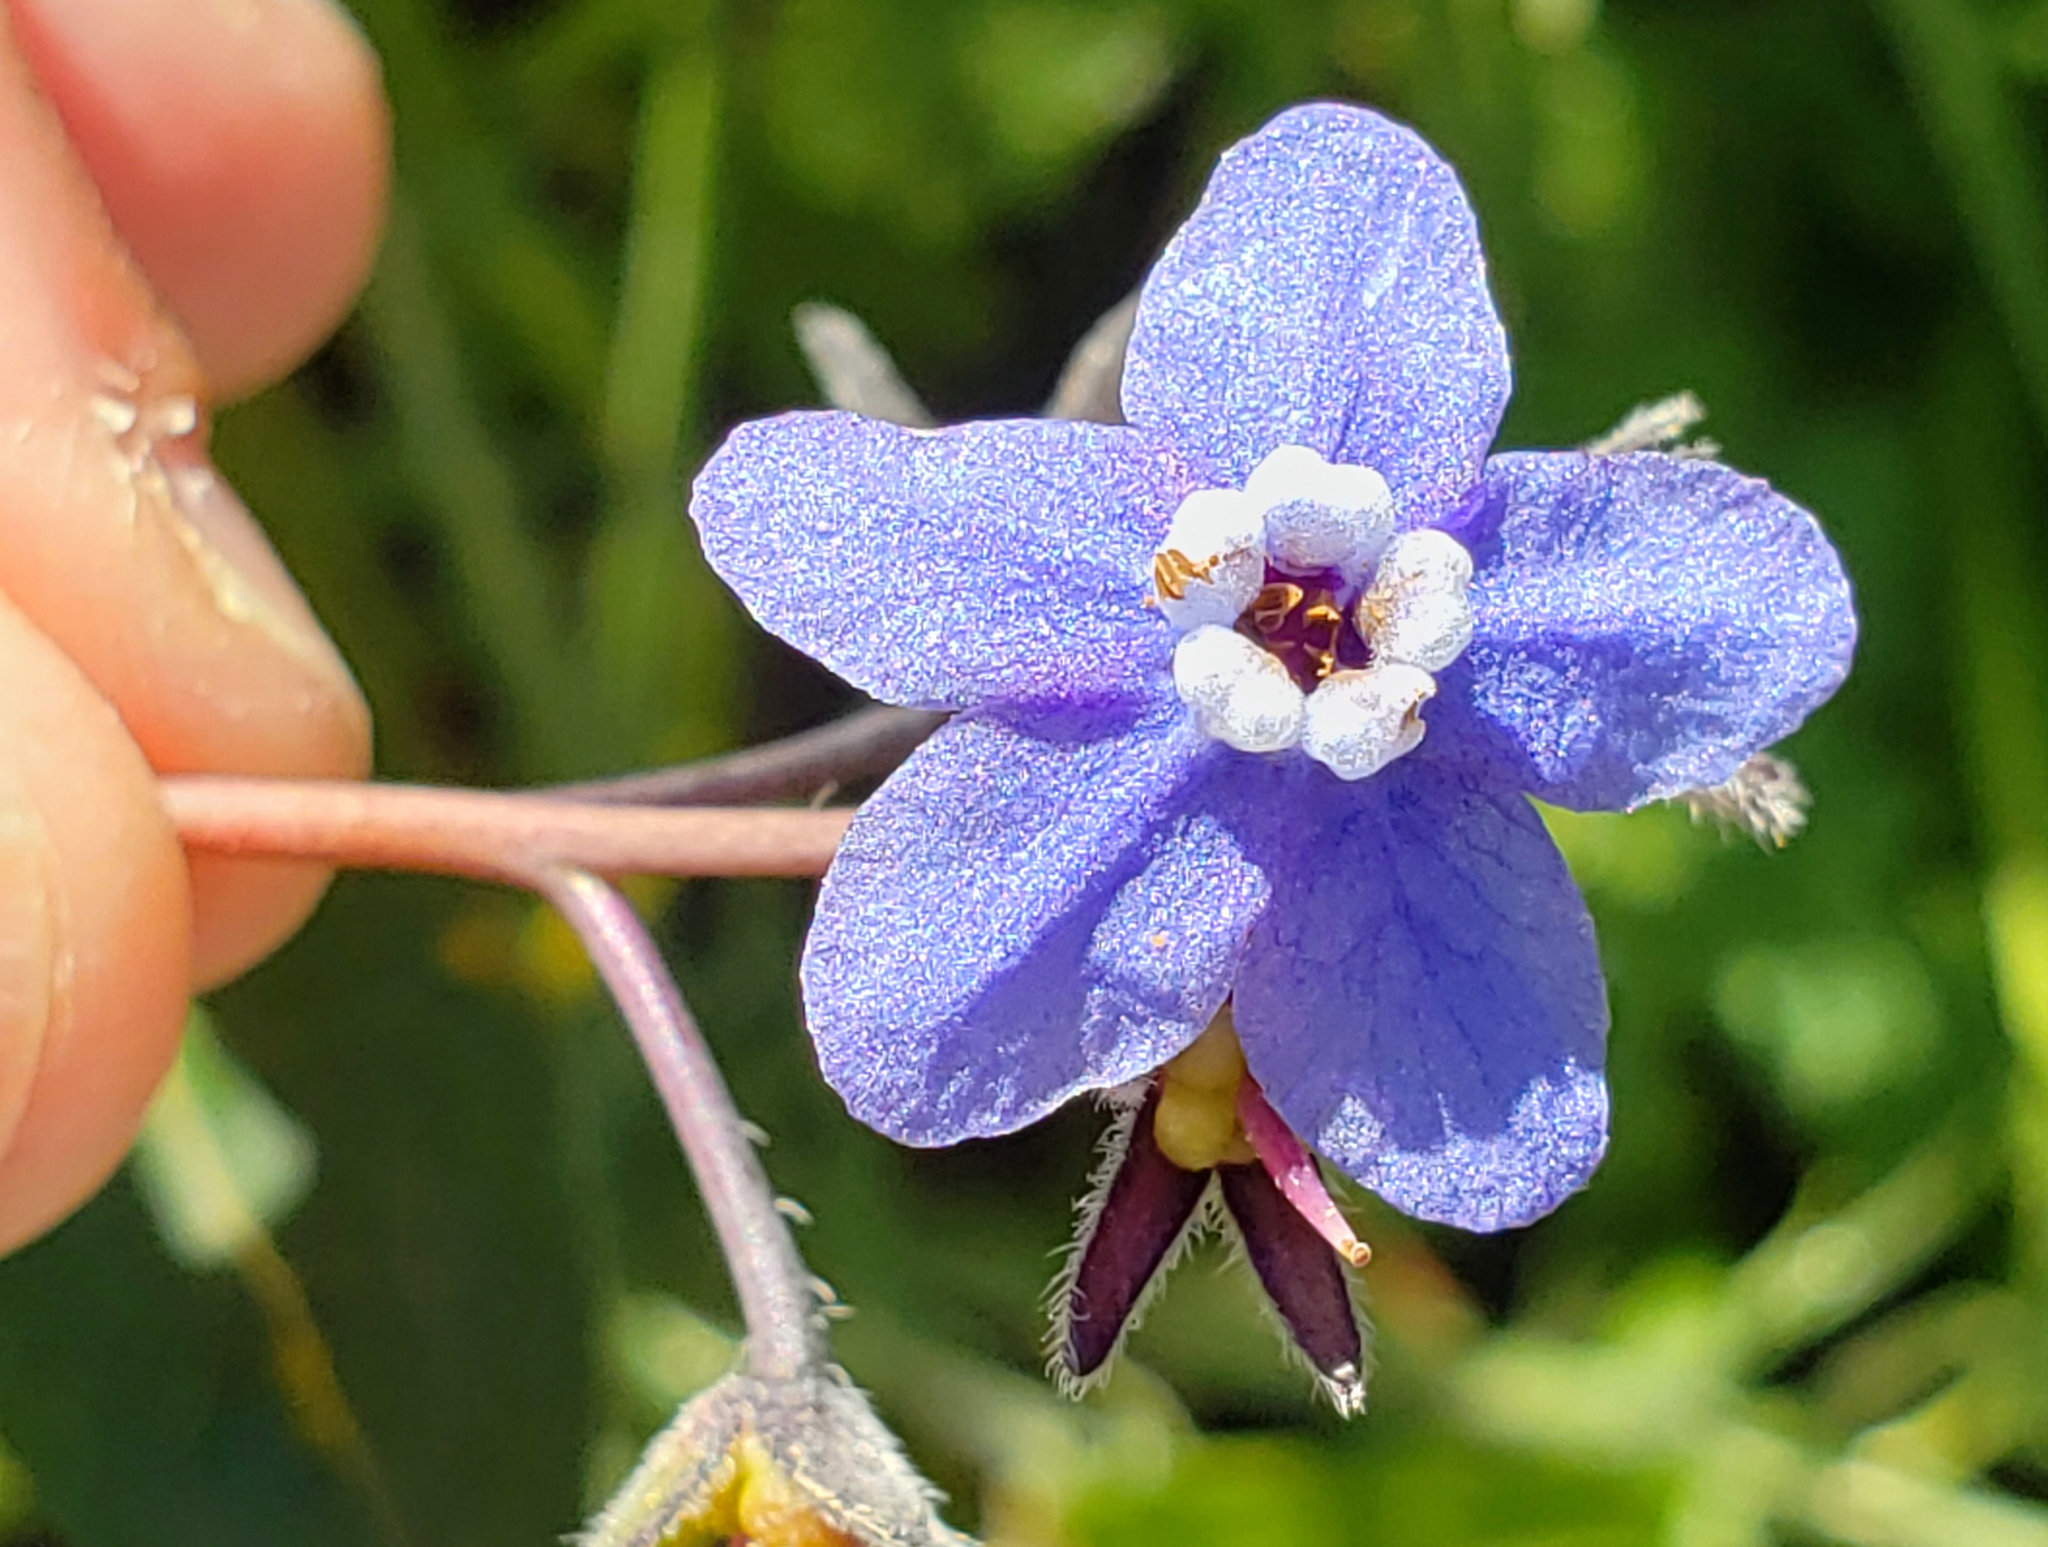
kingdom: Plantae
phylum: Tracheophyta
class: Magnoliopsida
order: Boraginales
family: Boraginaceae
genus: Adelinia
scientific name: Adelinia grande
